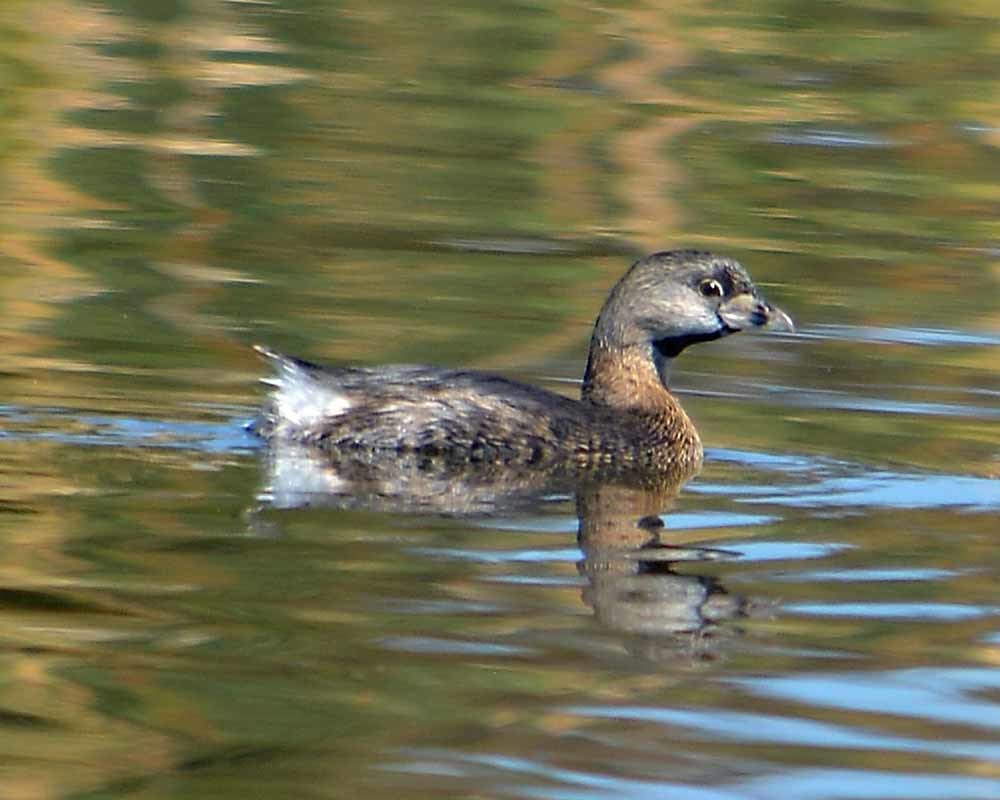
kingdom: Animalia
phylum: Chordata
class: Aves
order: Podicipediformes
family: Podicipedidae
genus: Podilymbus
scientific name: Podilymbus podiceps
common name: Pied-billed grebe
